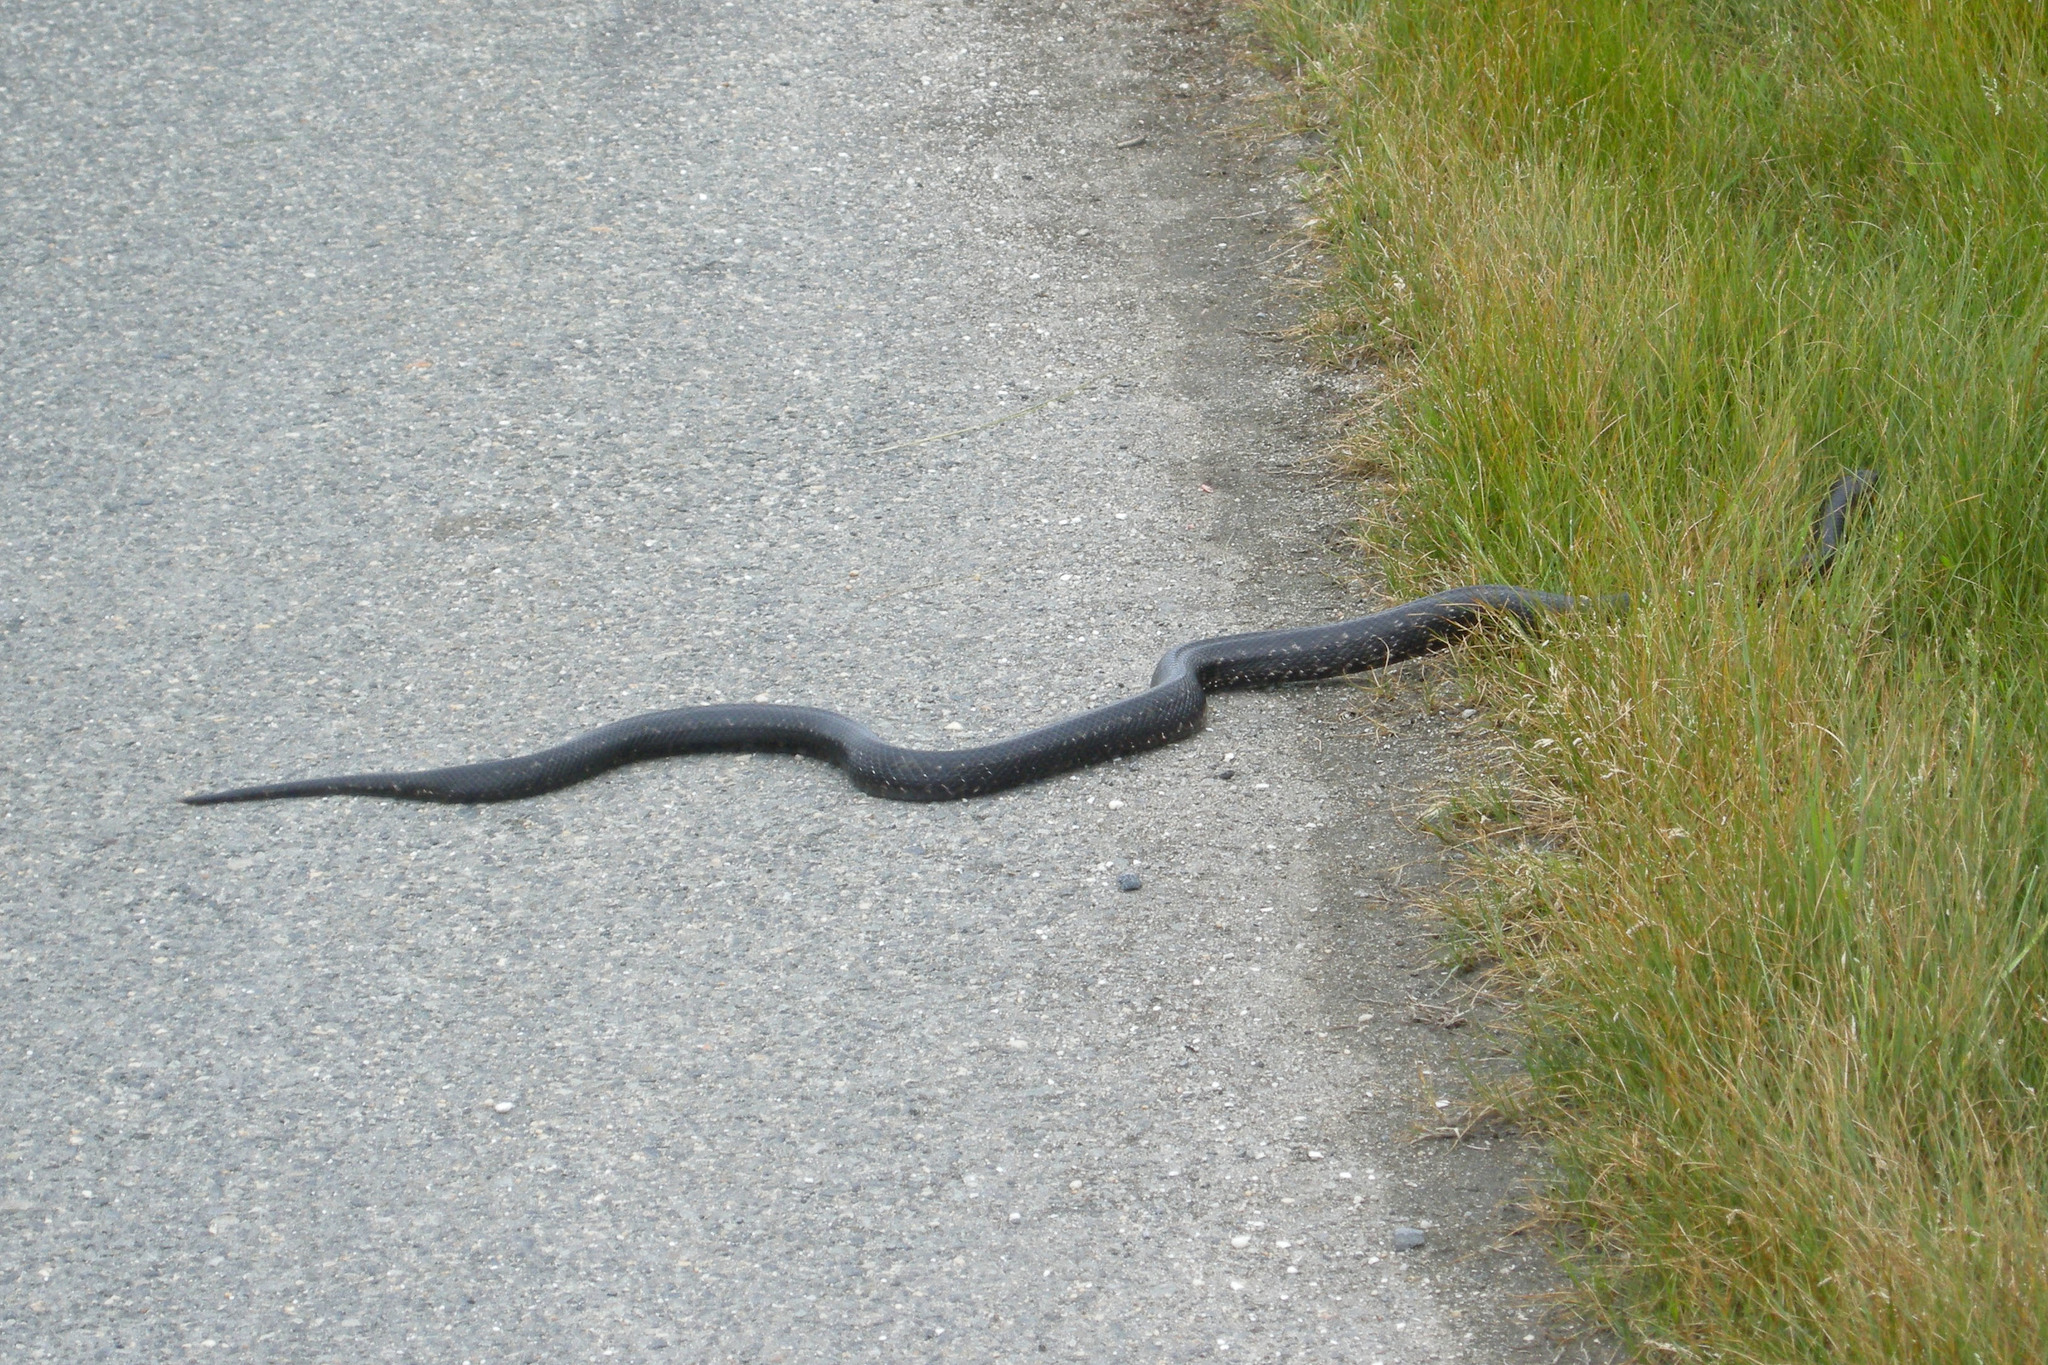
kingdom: Animalia
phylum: Chordata
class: Squamata
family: Colubridae
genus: Pantherophis
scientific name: Pantherophis alleghaniensis
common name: Eastern rat snake
